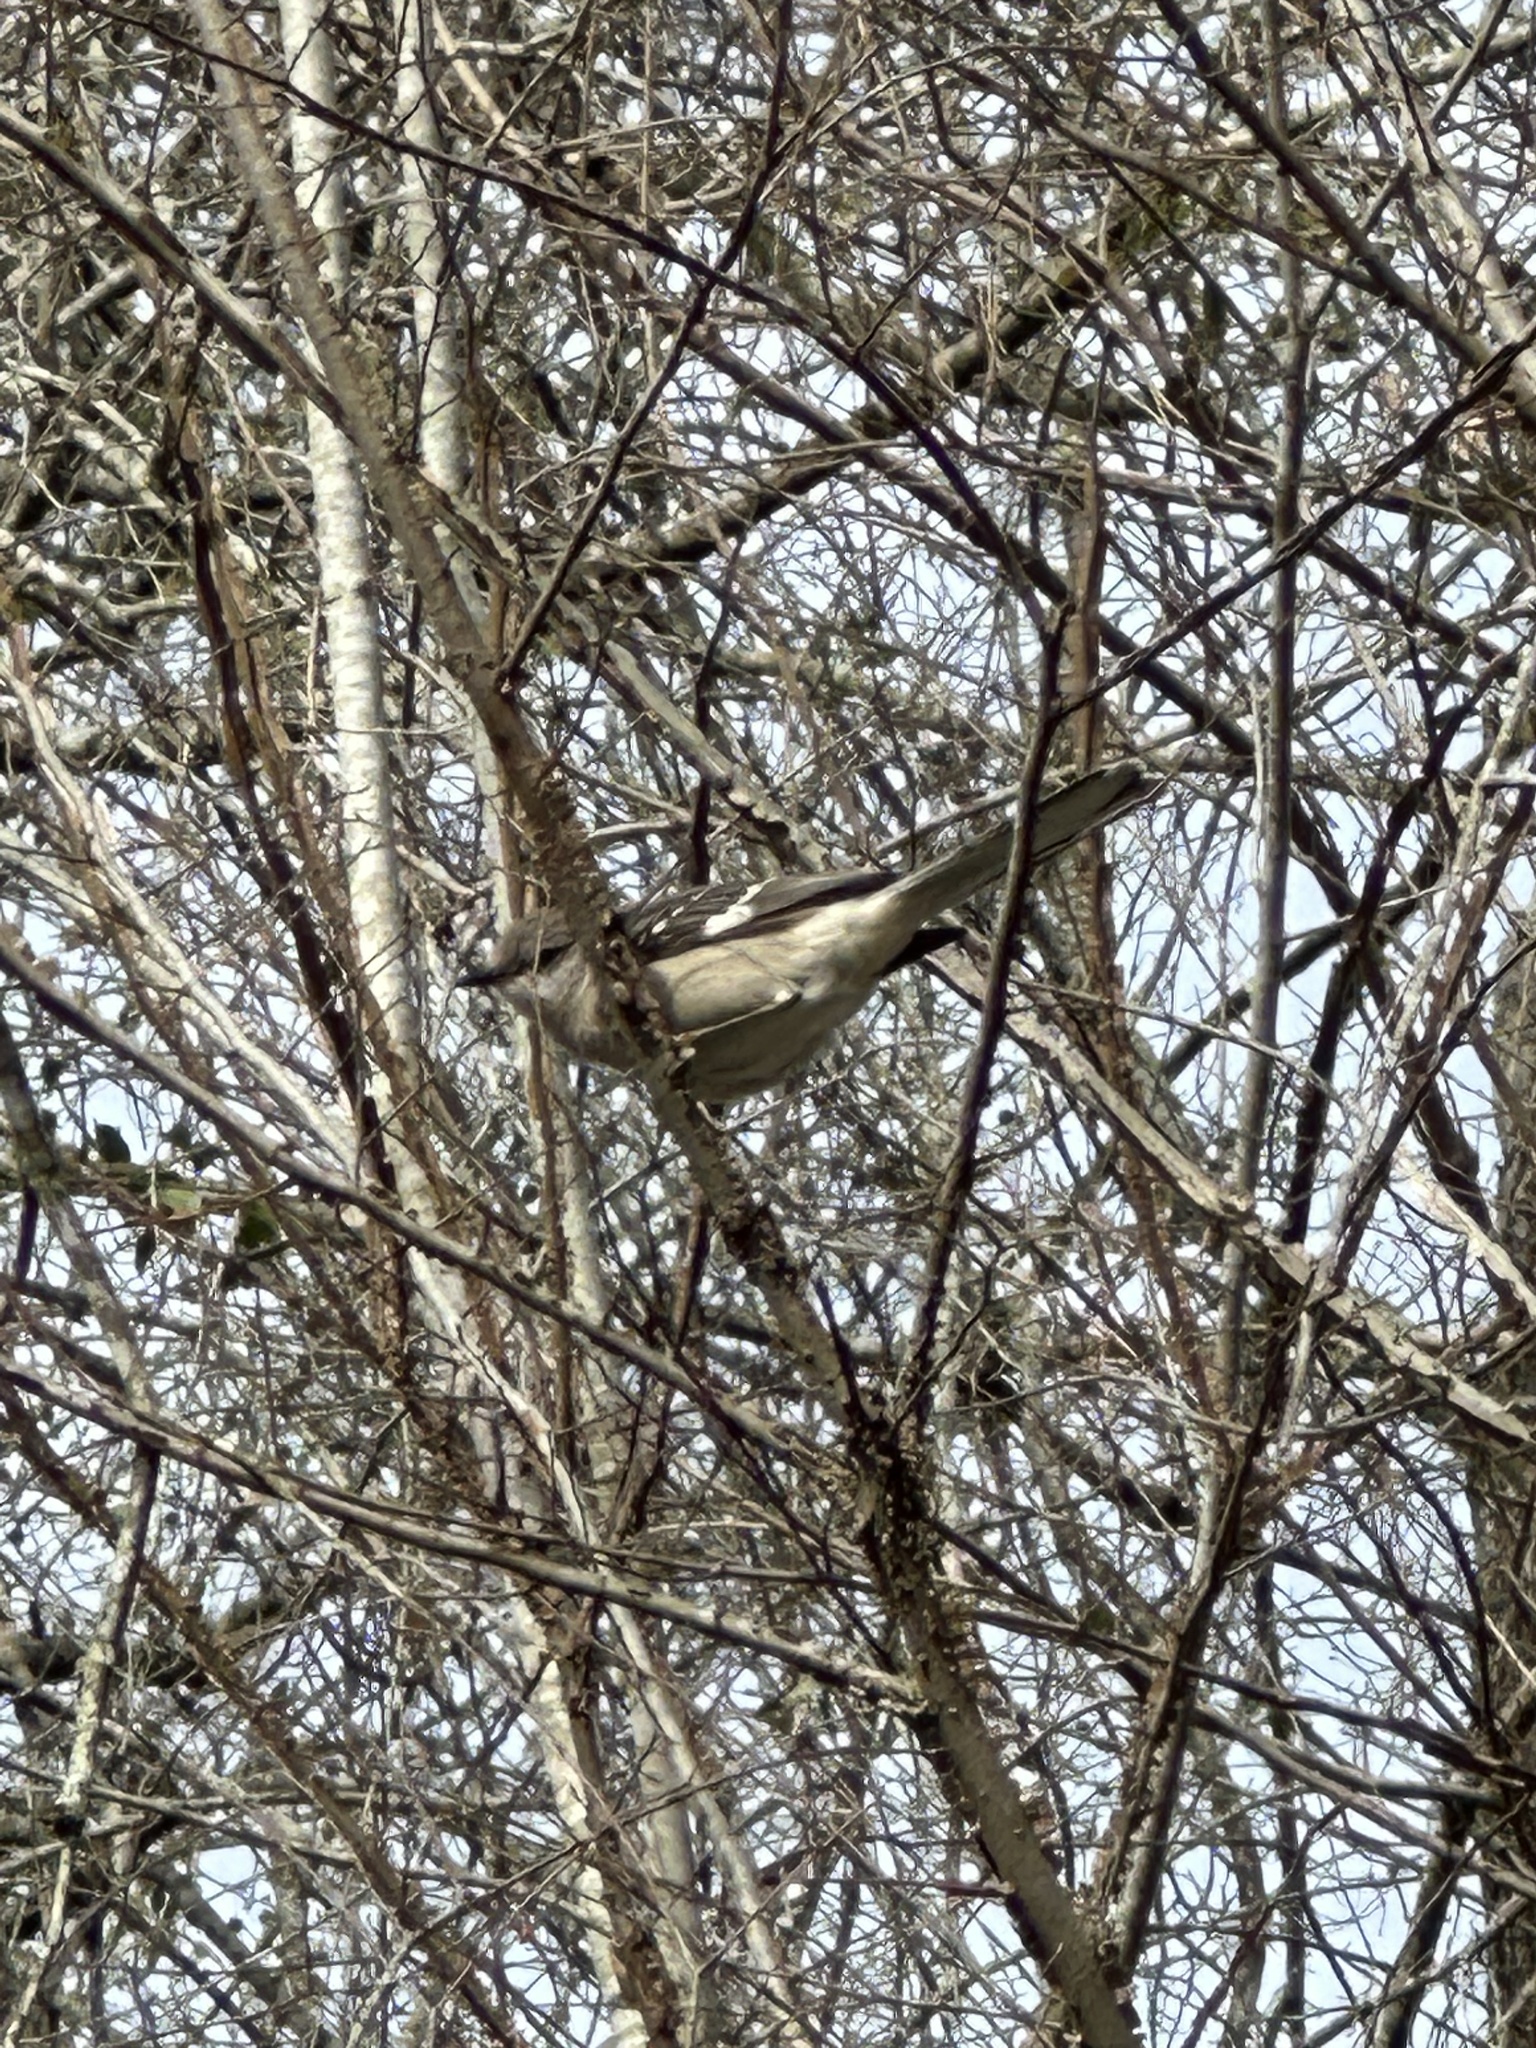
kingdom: Animalia
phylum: Chordata
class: Aves
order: Passeriformes
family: Mimidae
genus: Mimus
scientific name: Mimus polyglottos
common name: Northern mockingbird
